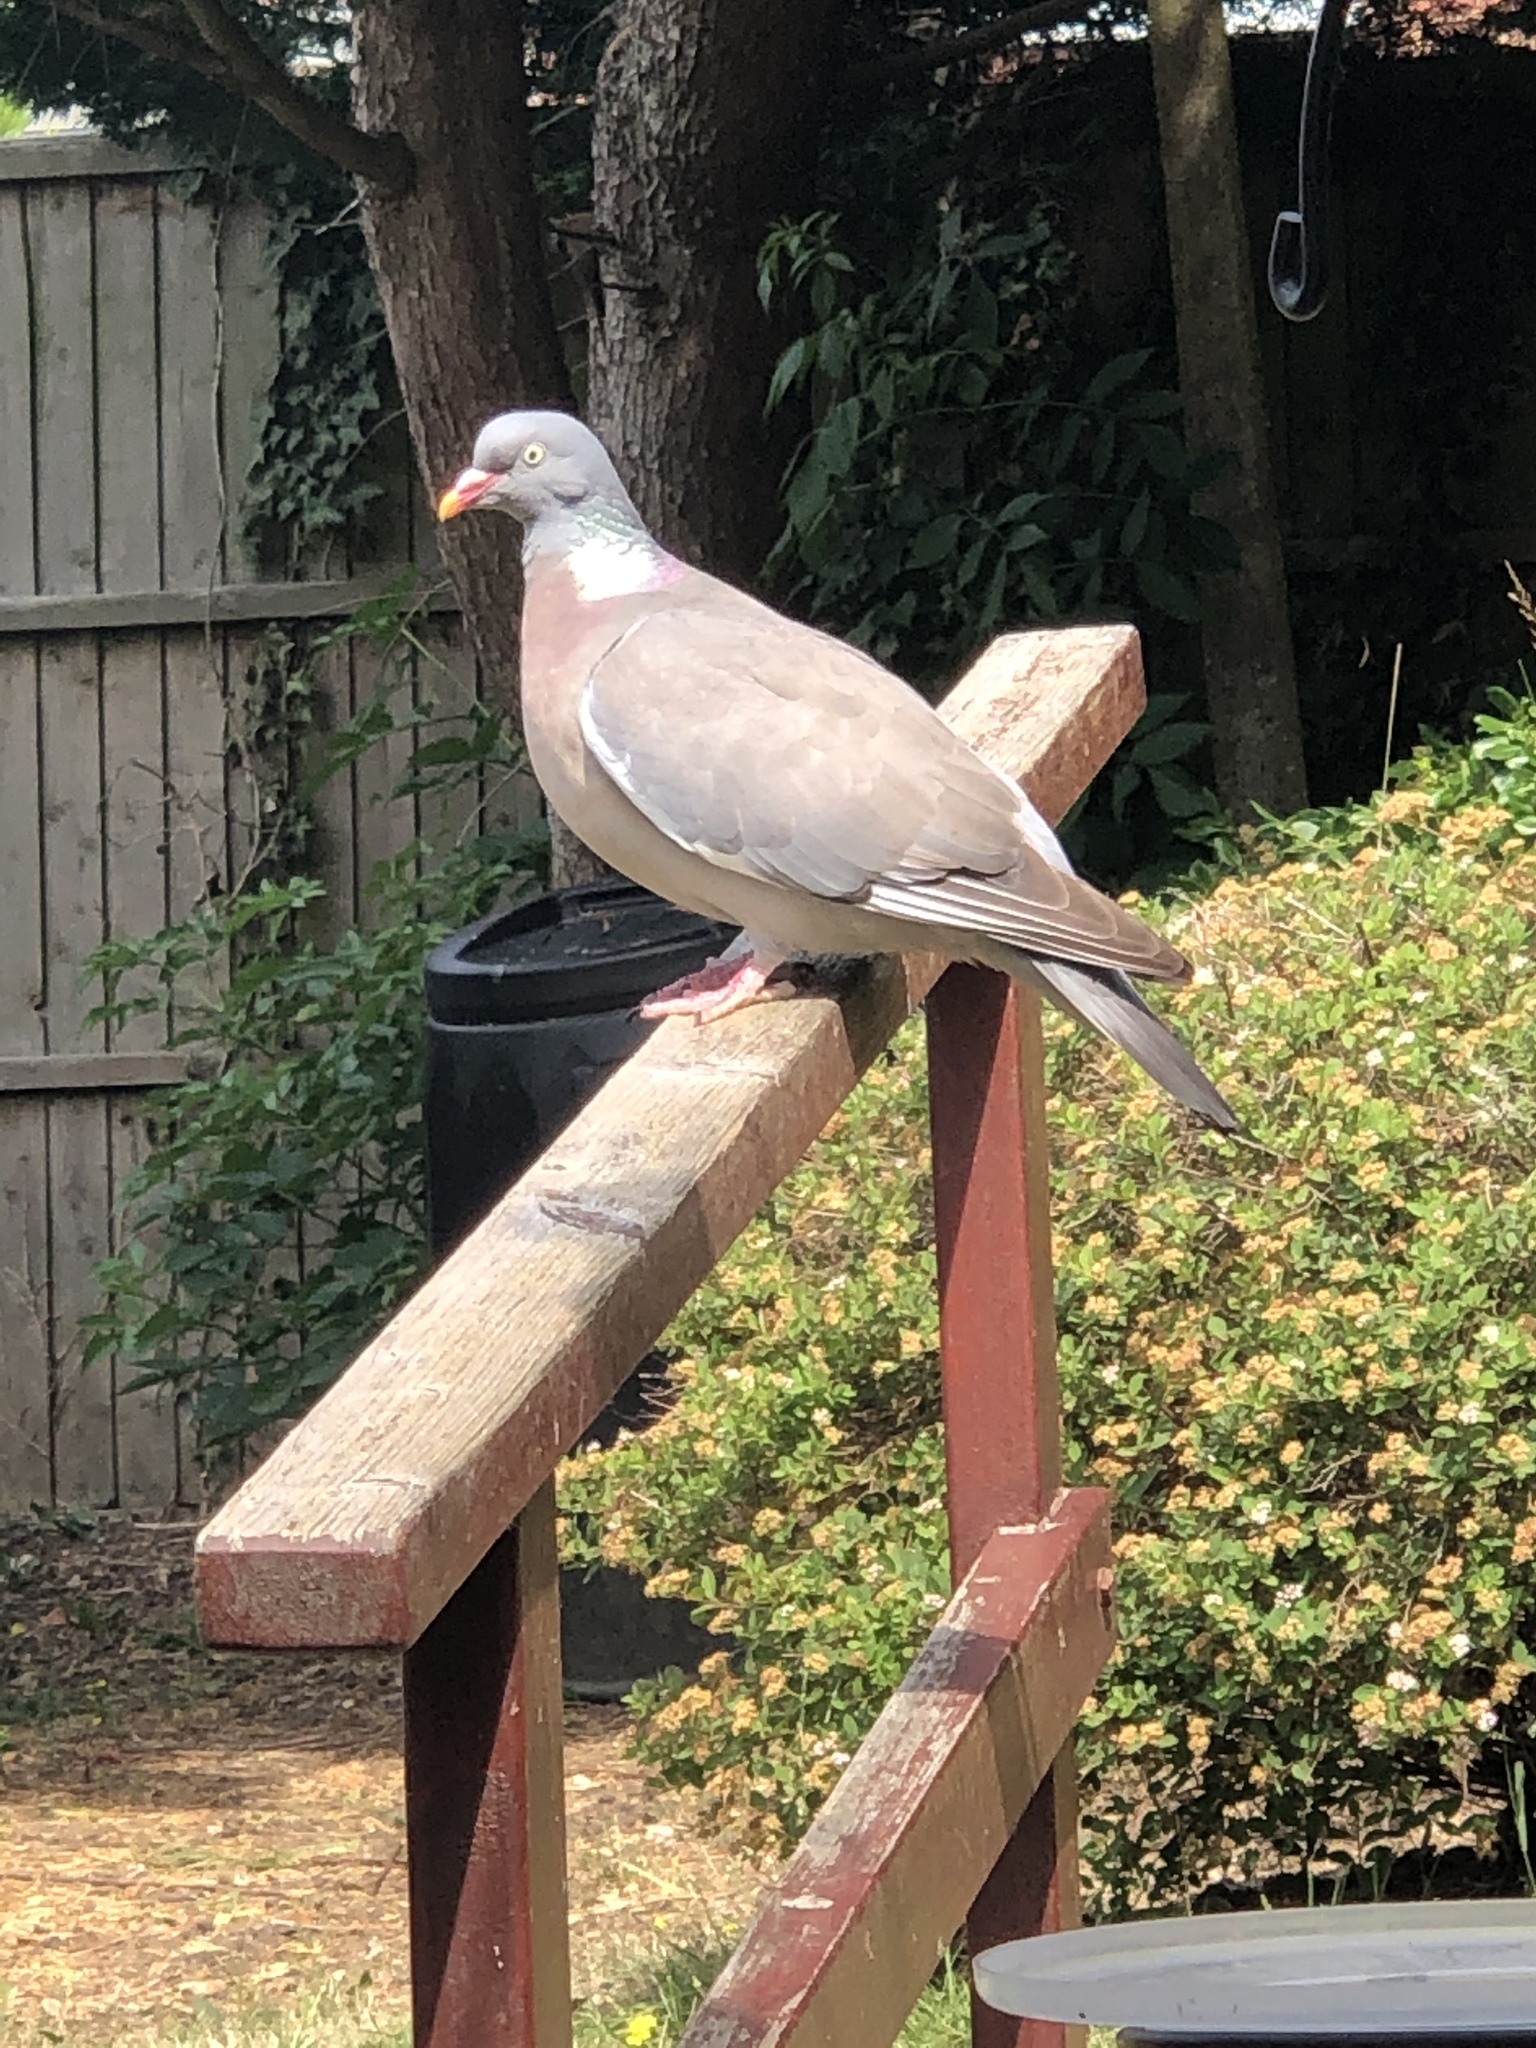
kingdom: Animalia
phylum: Chordata
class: Aves
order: Columbiformes
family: Columbidae
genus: Columba
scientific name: Columba palumbus
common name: Common wood pigeon
